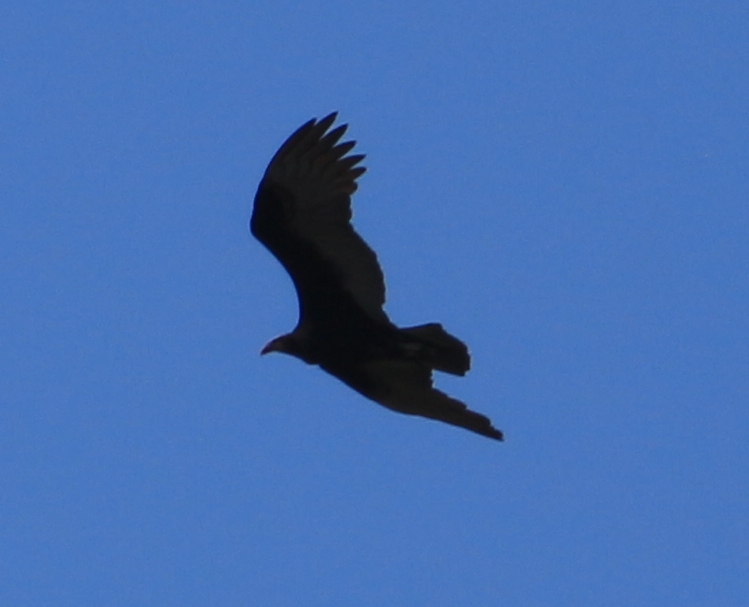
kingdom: Animalia
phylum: Chordata
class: Aves
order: Accipitriformes
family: Cathartidae
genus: Cathartes
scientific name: Cathartes burrovianus
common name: Lesser yellow-headed vulture
